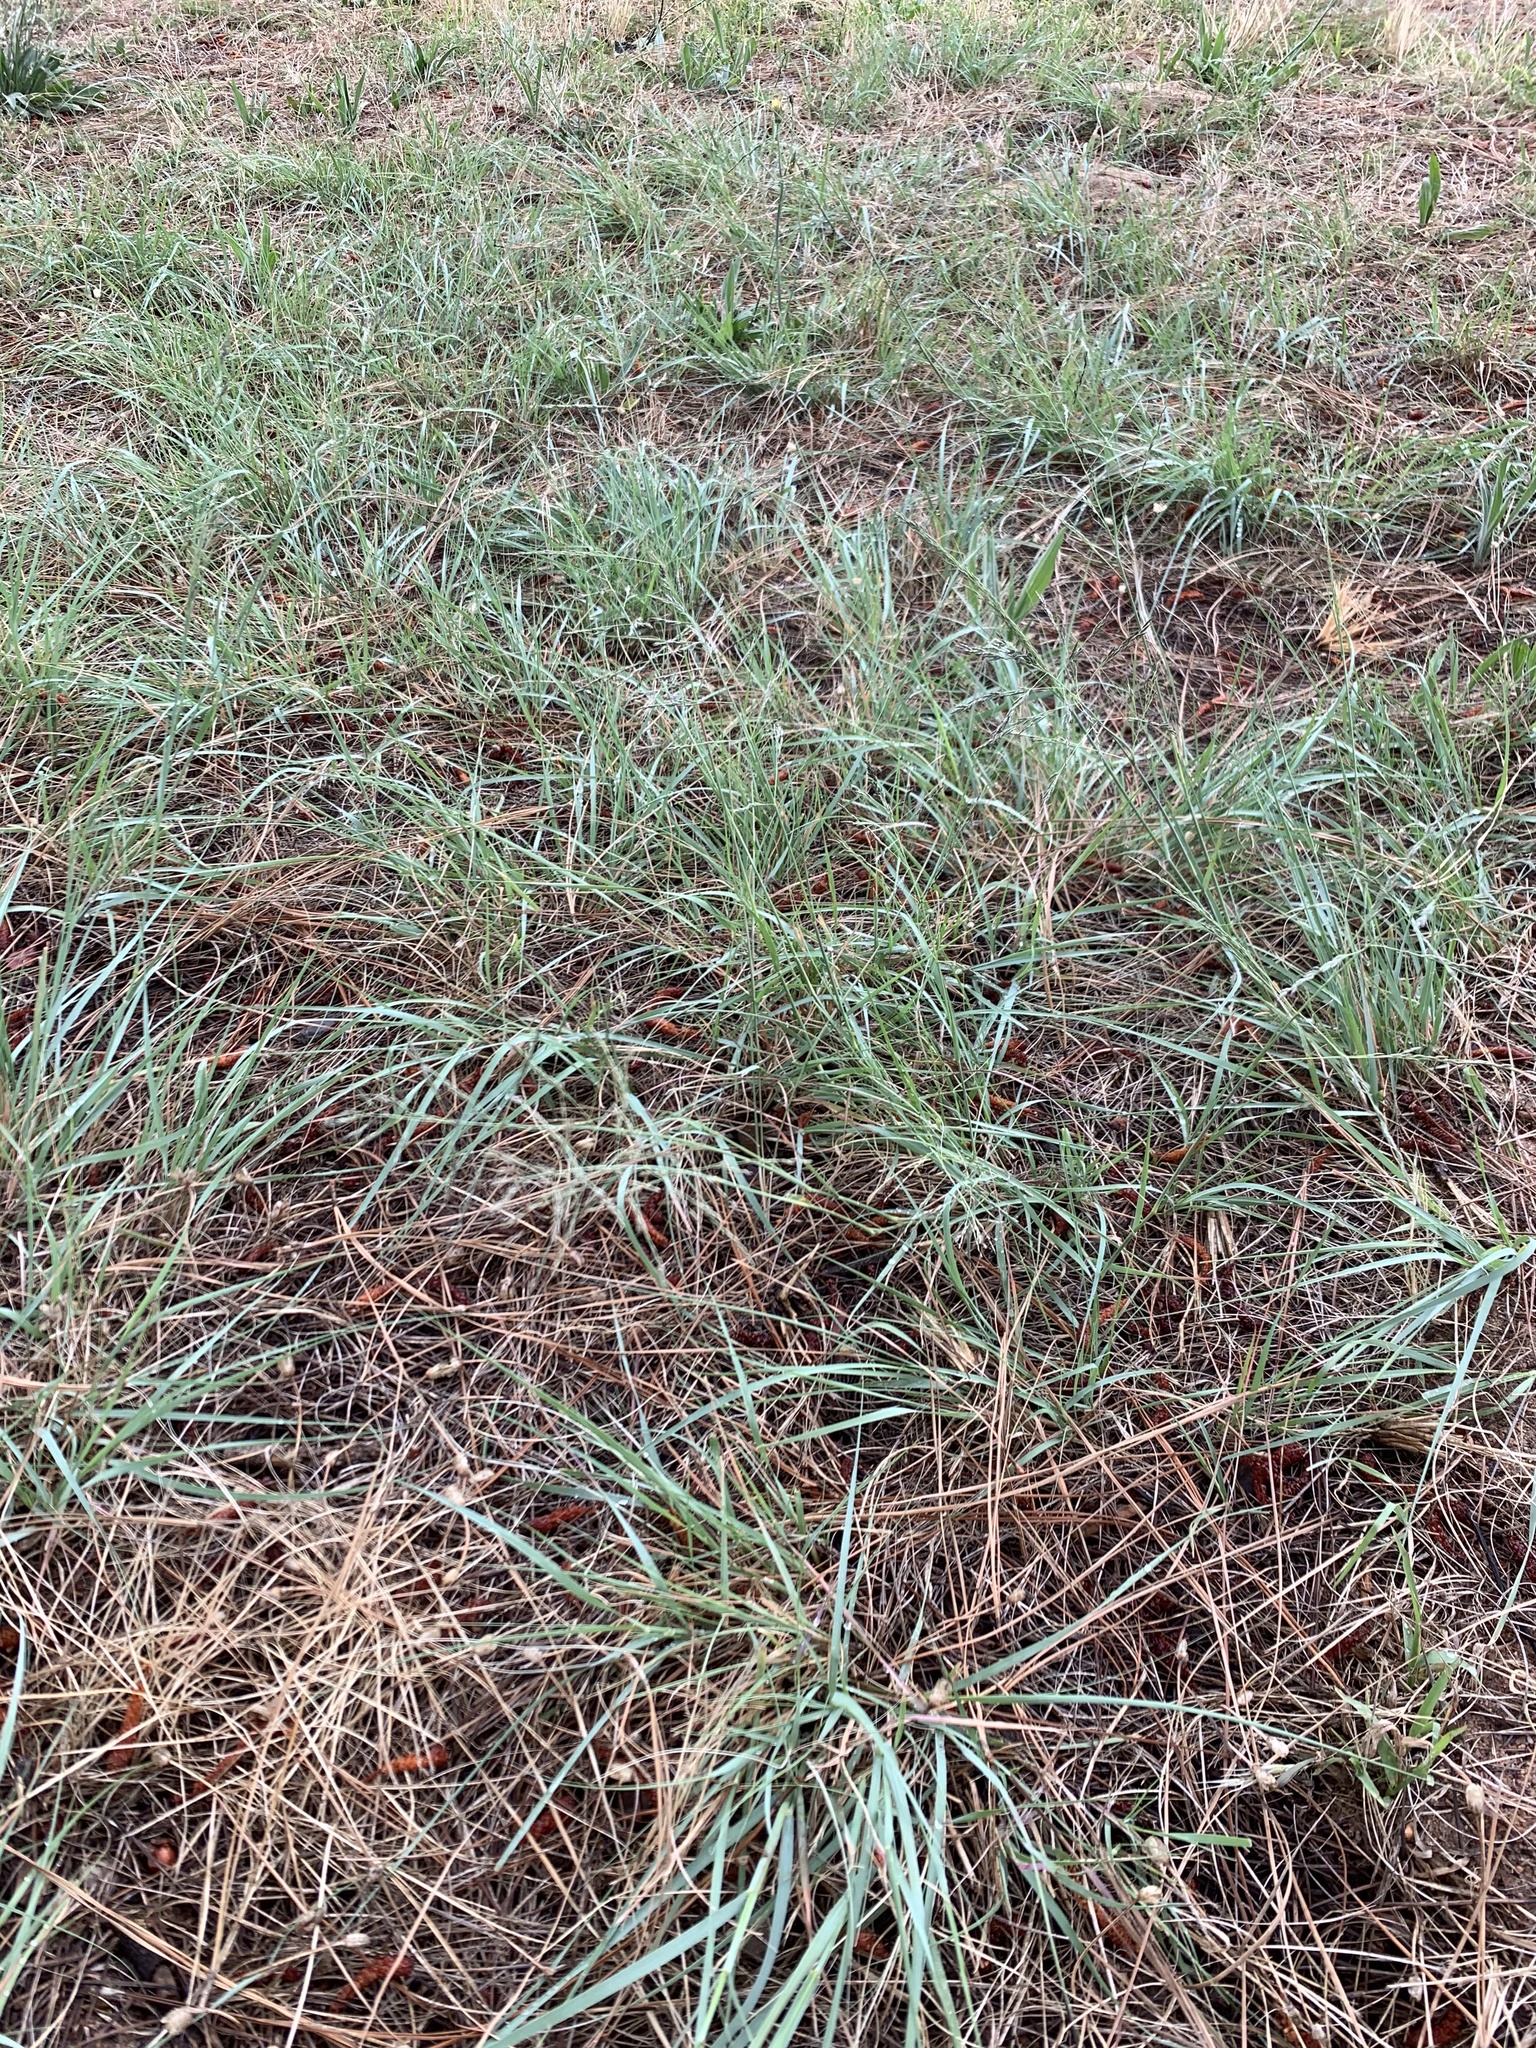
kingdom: Plantae
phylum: Tracheophyta
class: Liliopsida
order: Poales
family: Poaceae
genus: Eragrostis
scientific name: Eragrostis curvula
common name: African love-grass
